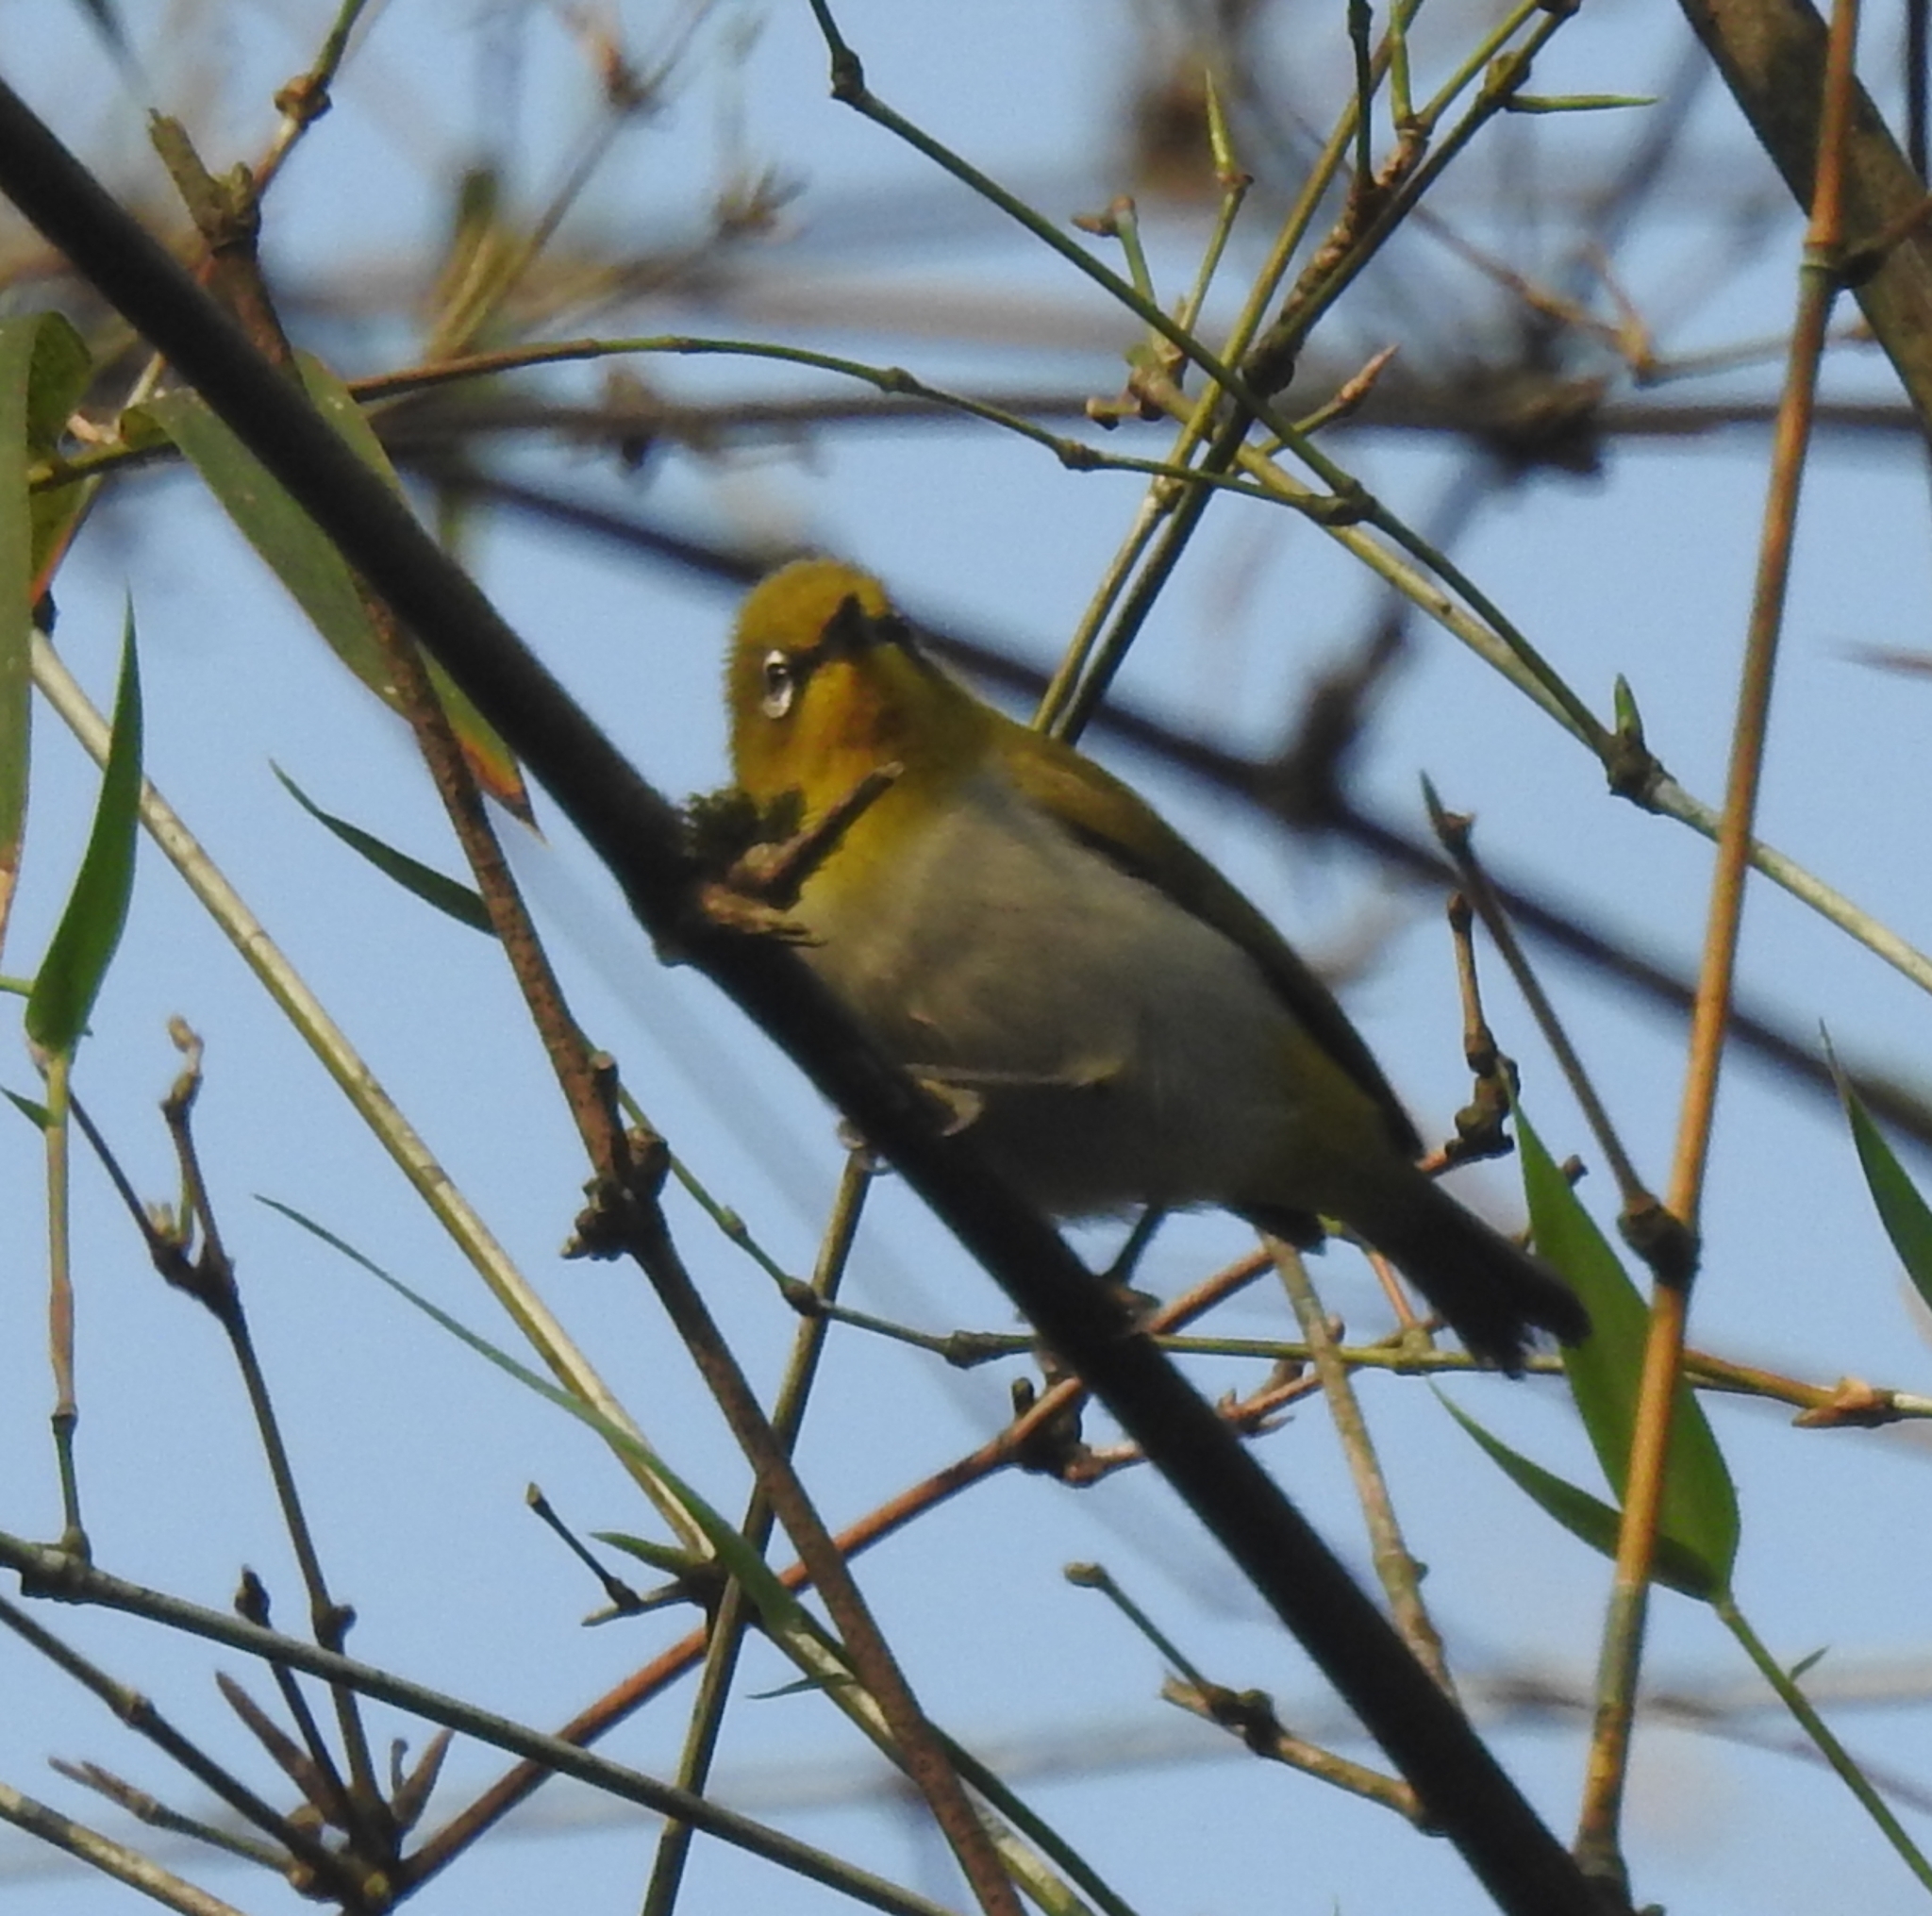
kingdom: Animalia
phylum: Chordata
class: Aves
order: Passeriformes
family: Zosteropidae
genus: Zosterops
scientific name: Zosterops palpebrosus
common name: Oriental white-eye
